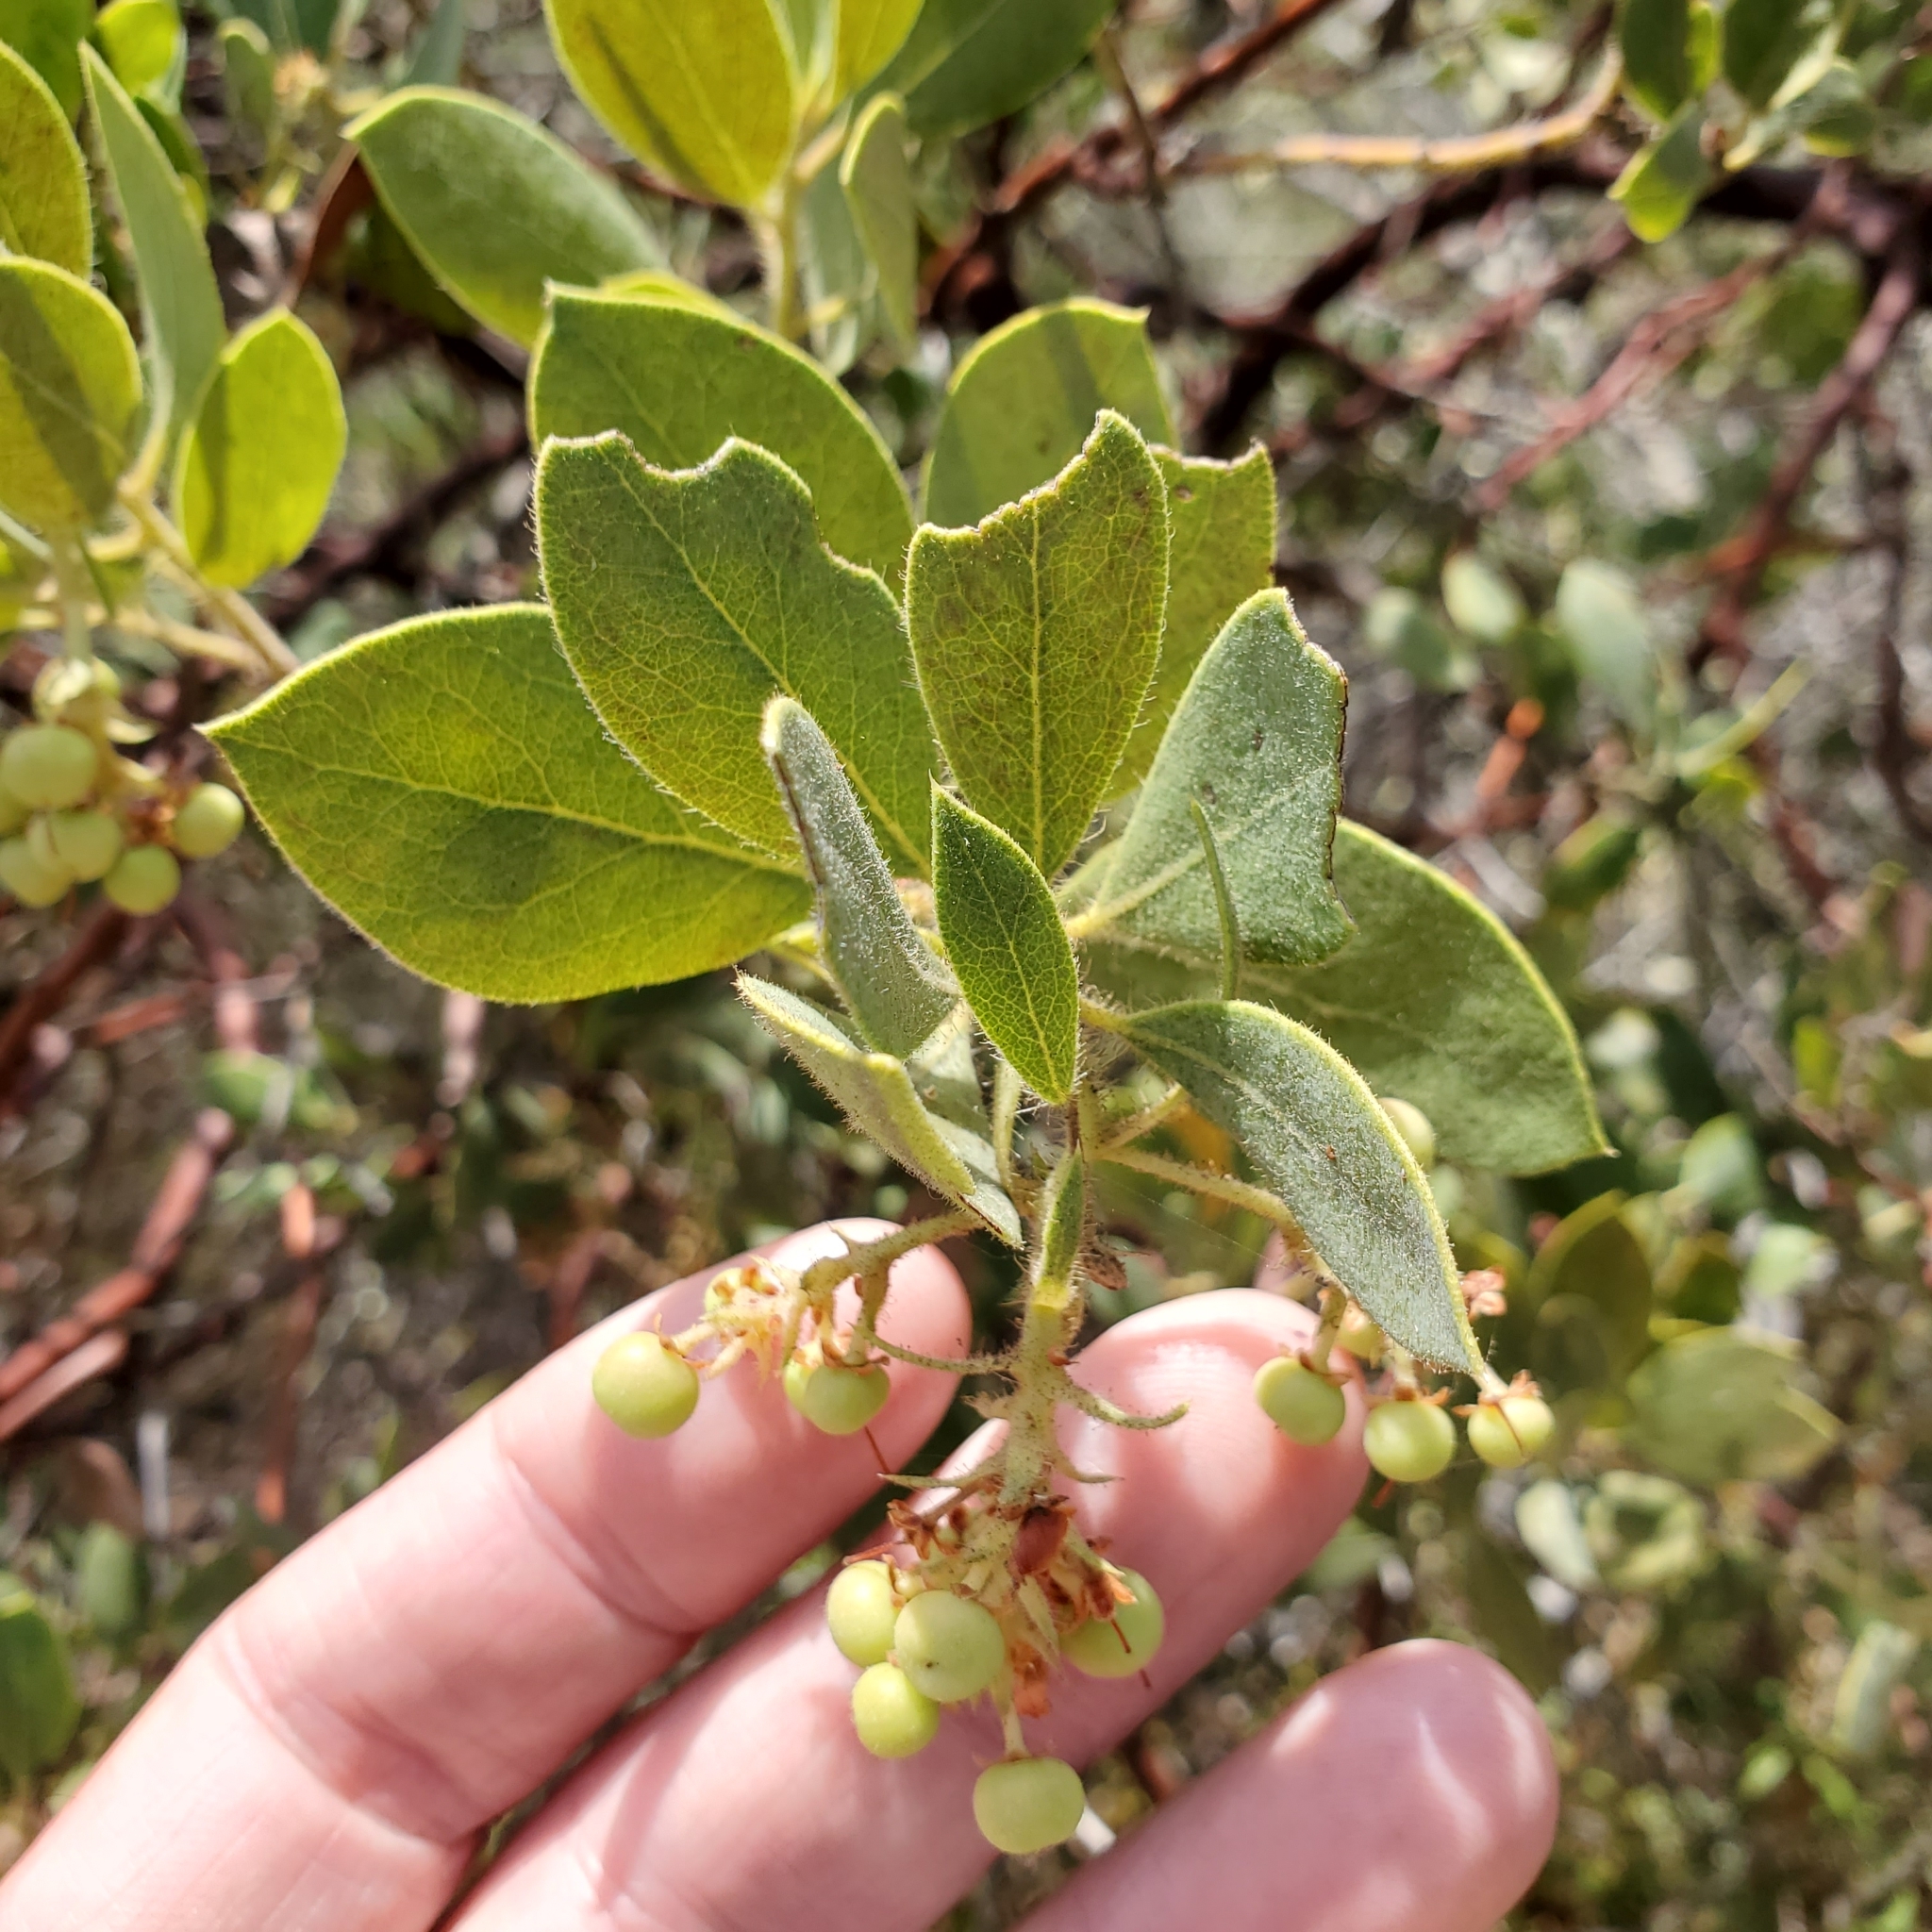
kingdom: Plantae
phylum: Tracheophyta
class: Magnoliopsida
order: Ericales
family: Ericaceae
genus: Arctostaphylos
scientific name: Arctostaphylos glandulosa
